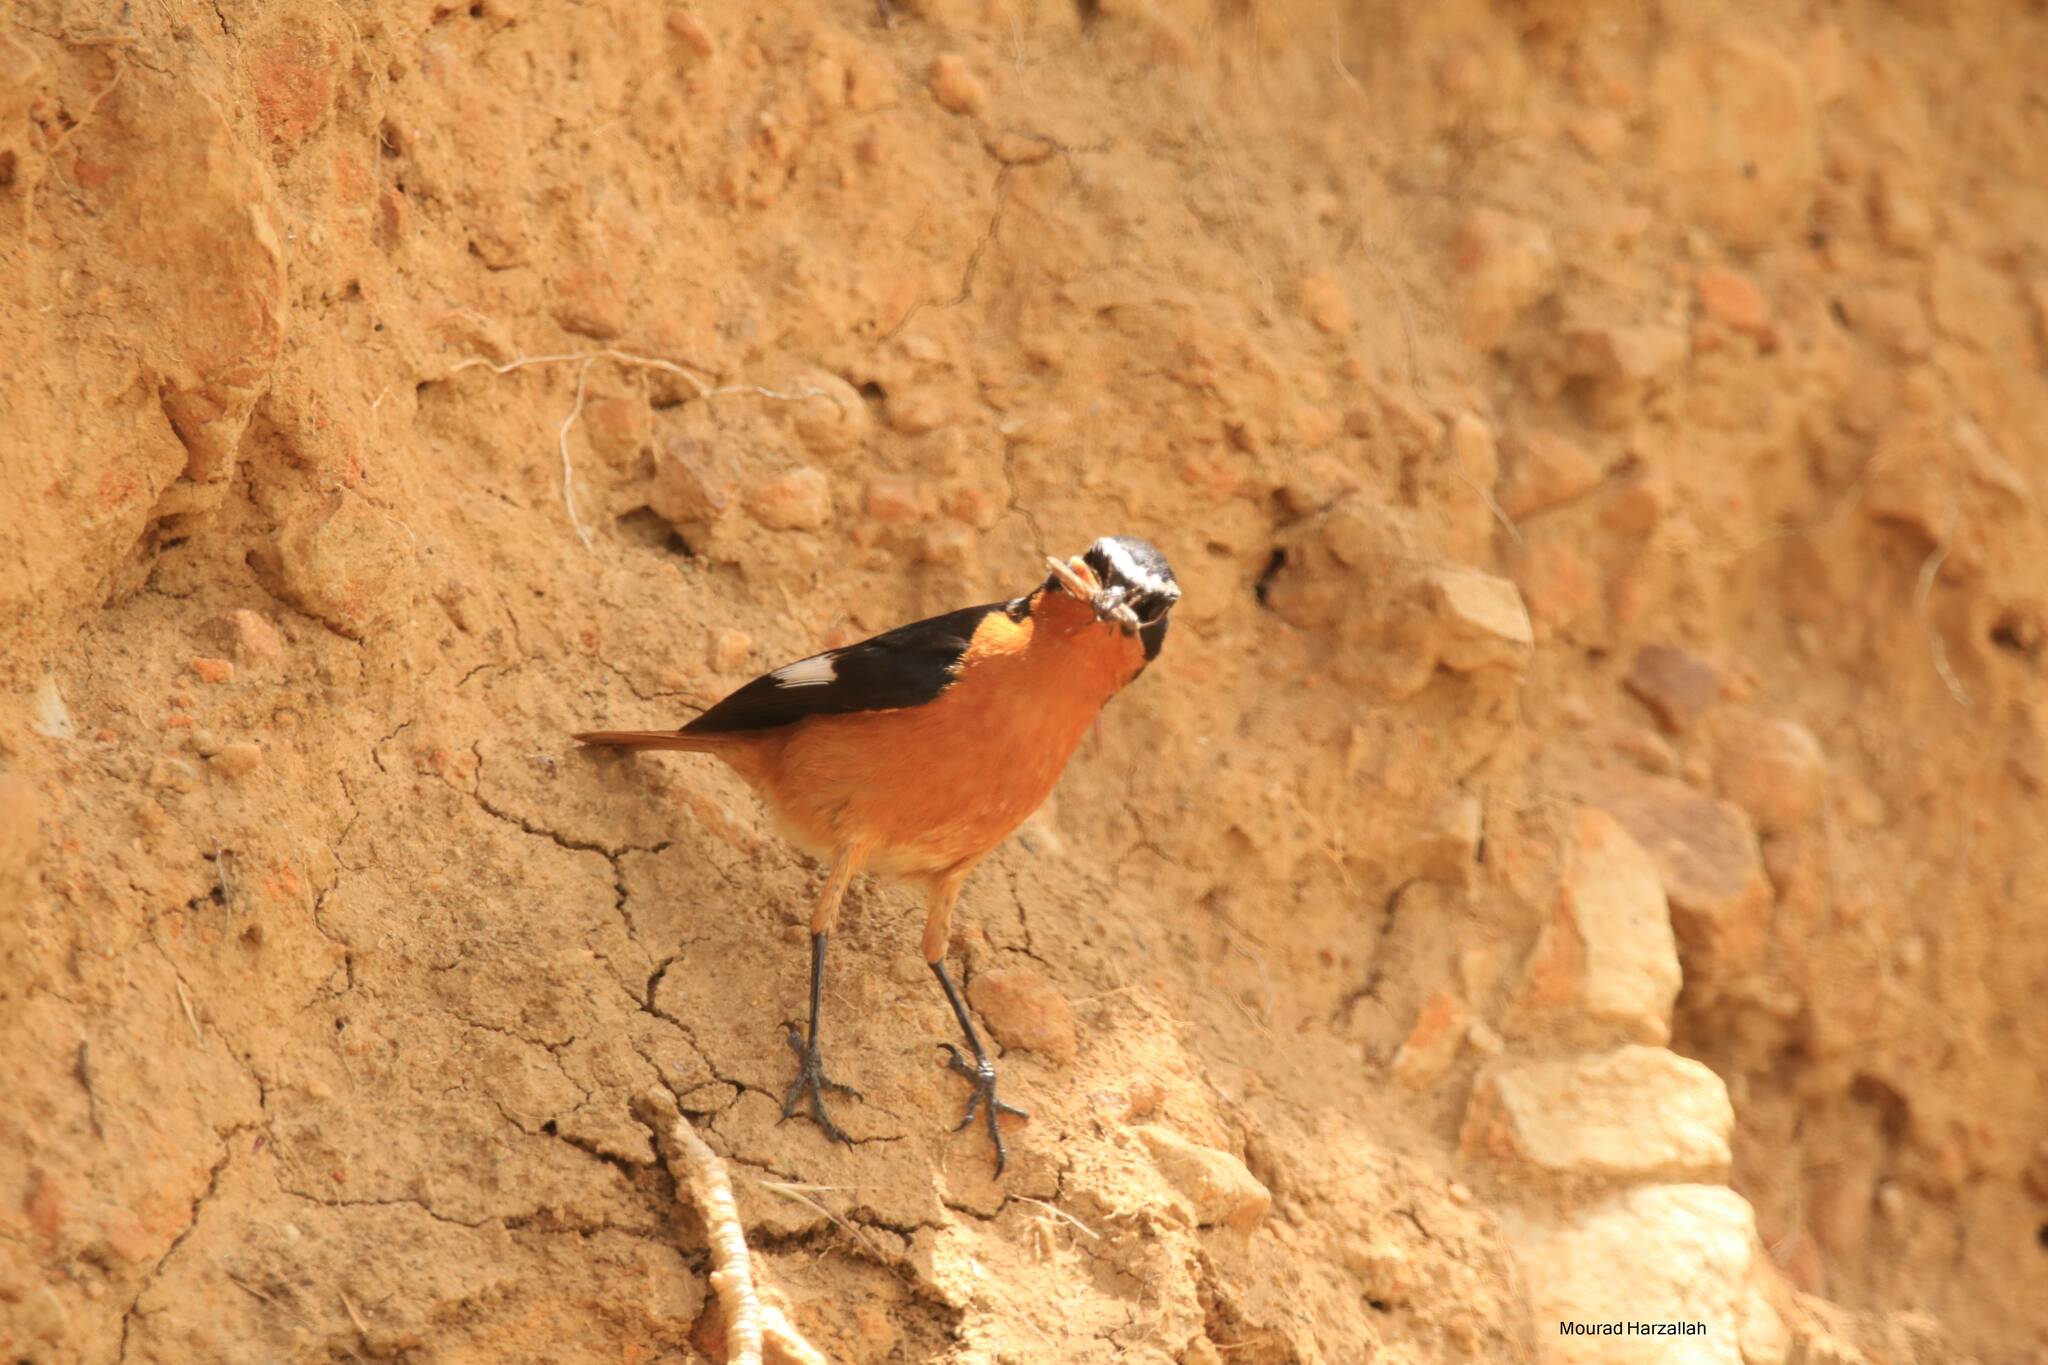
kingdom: Animalia
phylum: Chordata
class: Aves
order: Passeriformes
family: Muscicapidae
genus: Phoenicurus
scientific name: Phoenicurus moussieri
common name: Moussier's redstart
